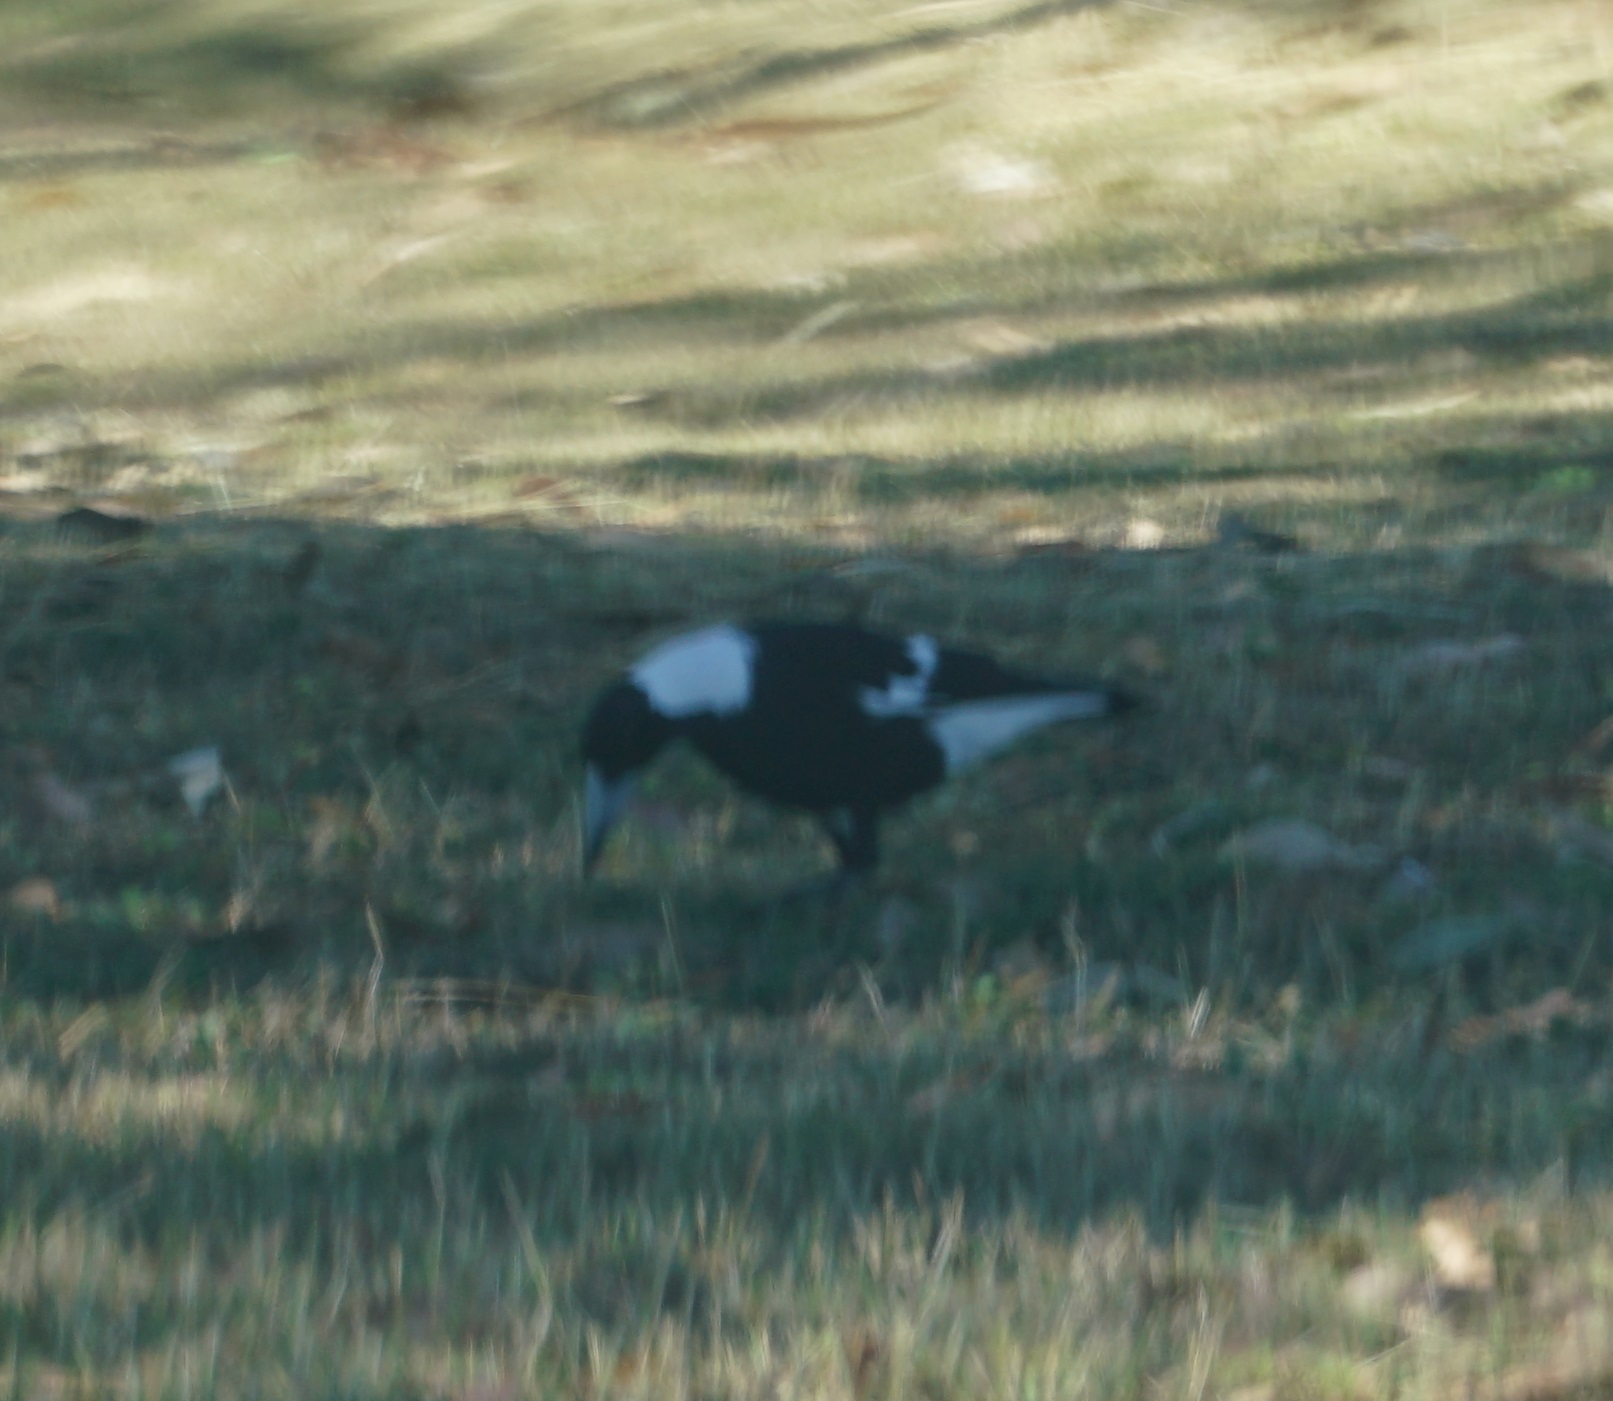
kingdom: Animalia
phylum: Chordata
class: Aves
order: Passeriformes
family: Cracticidae
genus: Gymnorhina
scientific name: Gymnorhina tibicen
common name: Australian magpie
